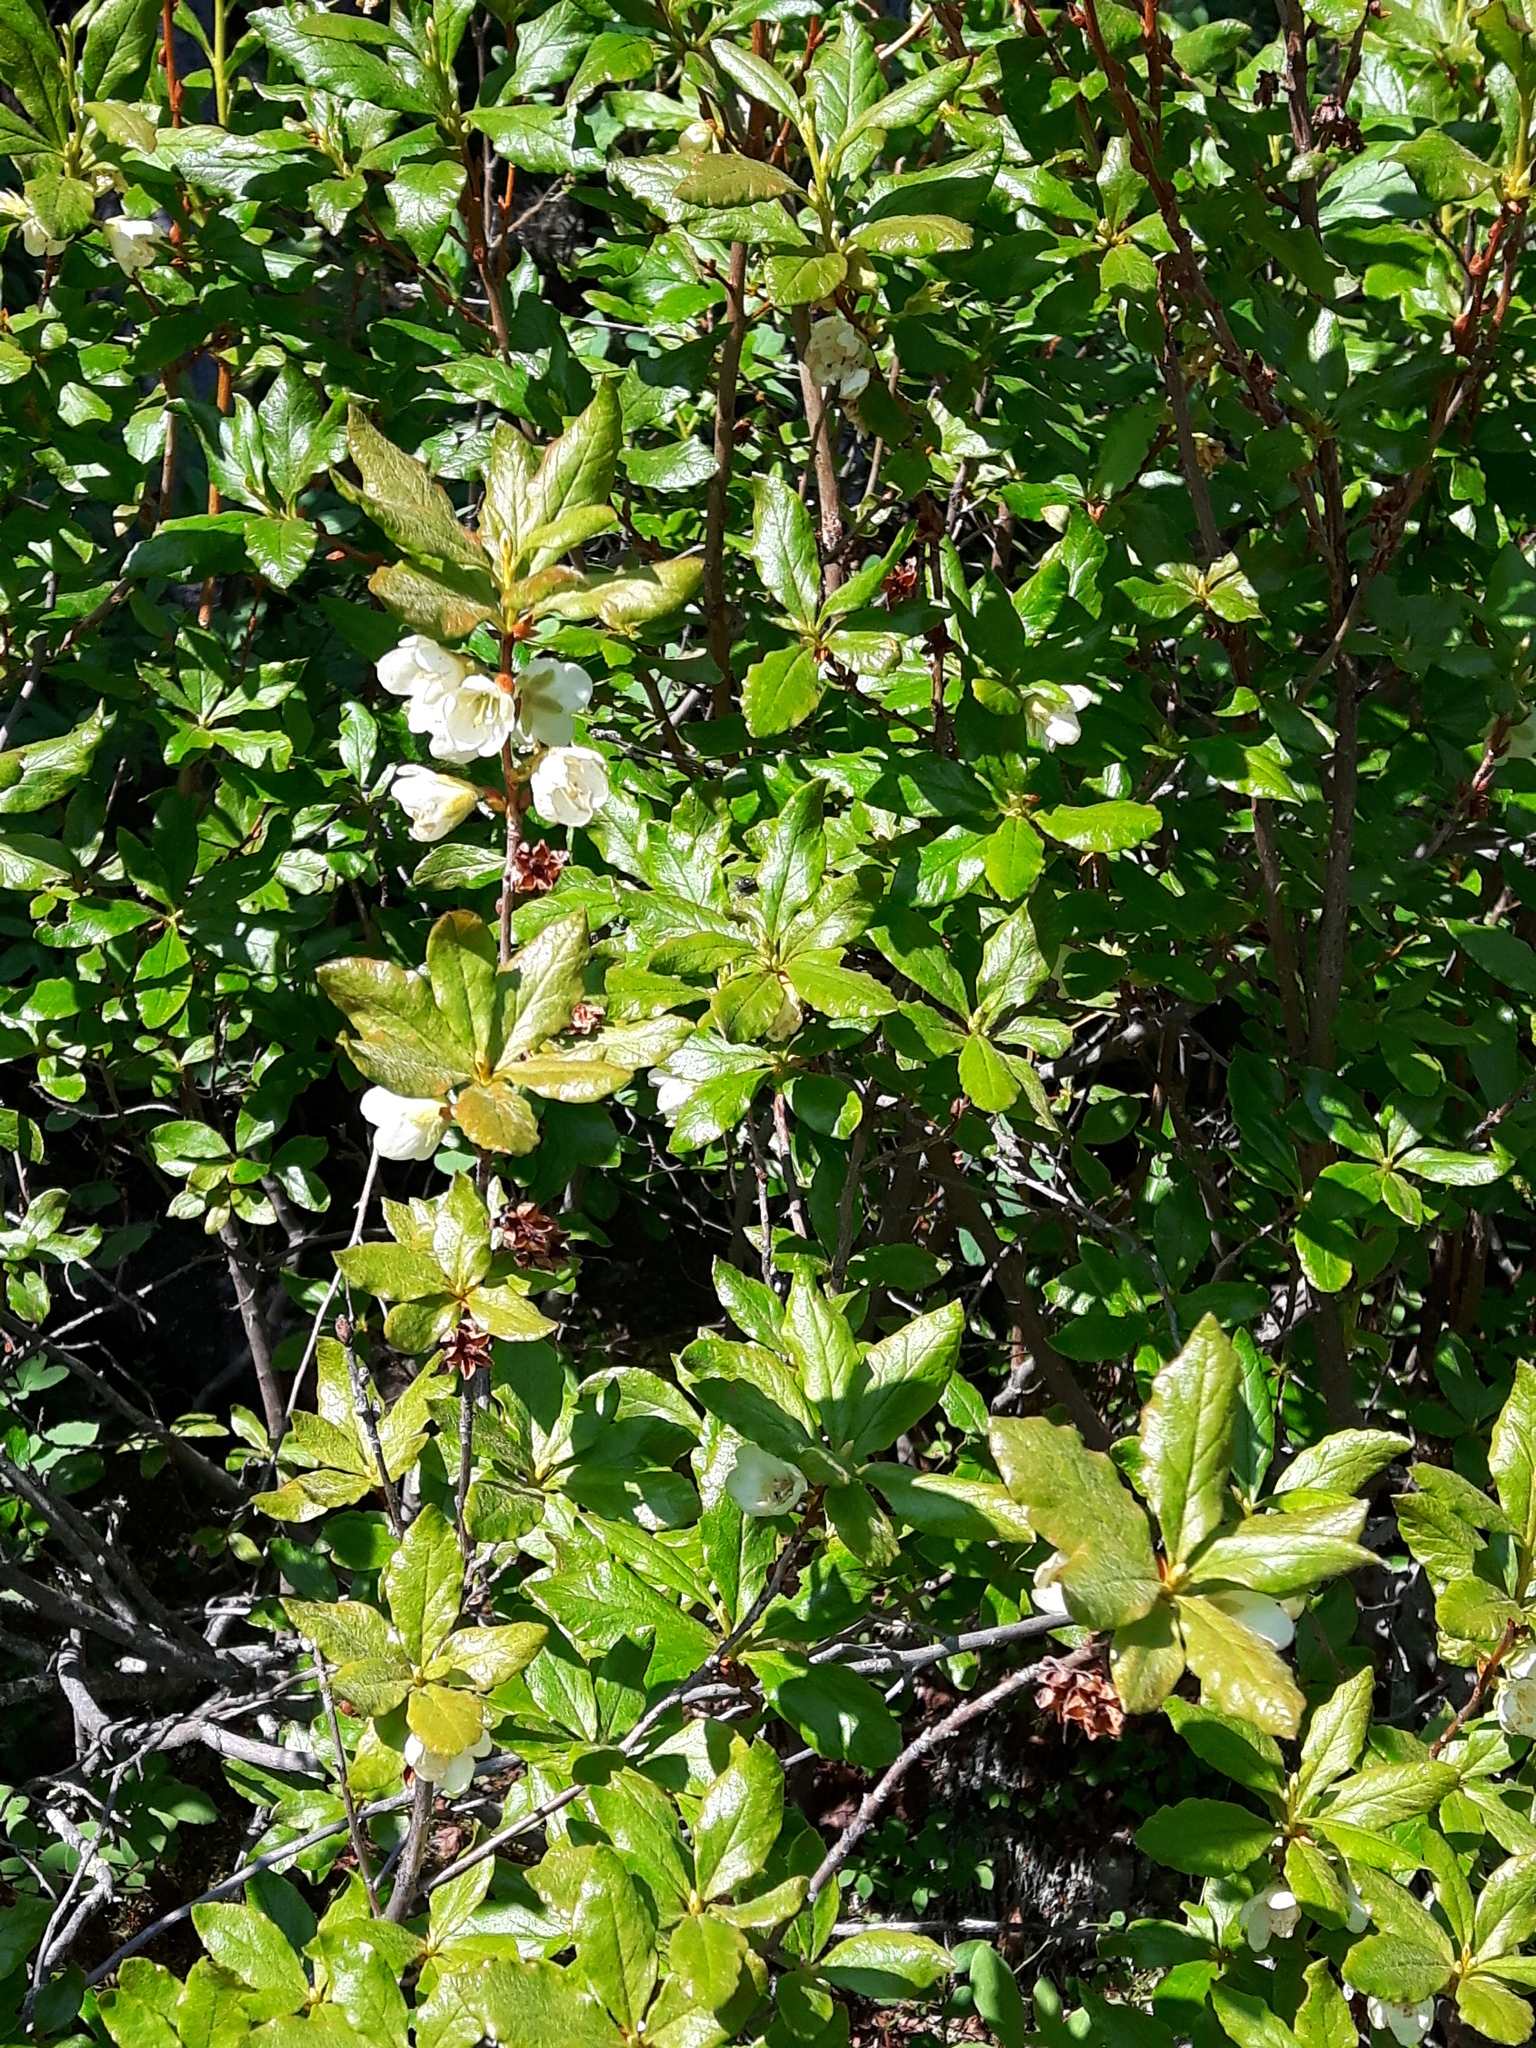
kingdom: Plantae
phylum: Tracheophyta
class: Magnoliopsida
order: Ericales
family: Ericaceae
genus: Rhododendron
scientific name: Rhododendron albiflorum
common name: White rhododendron
